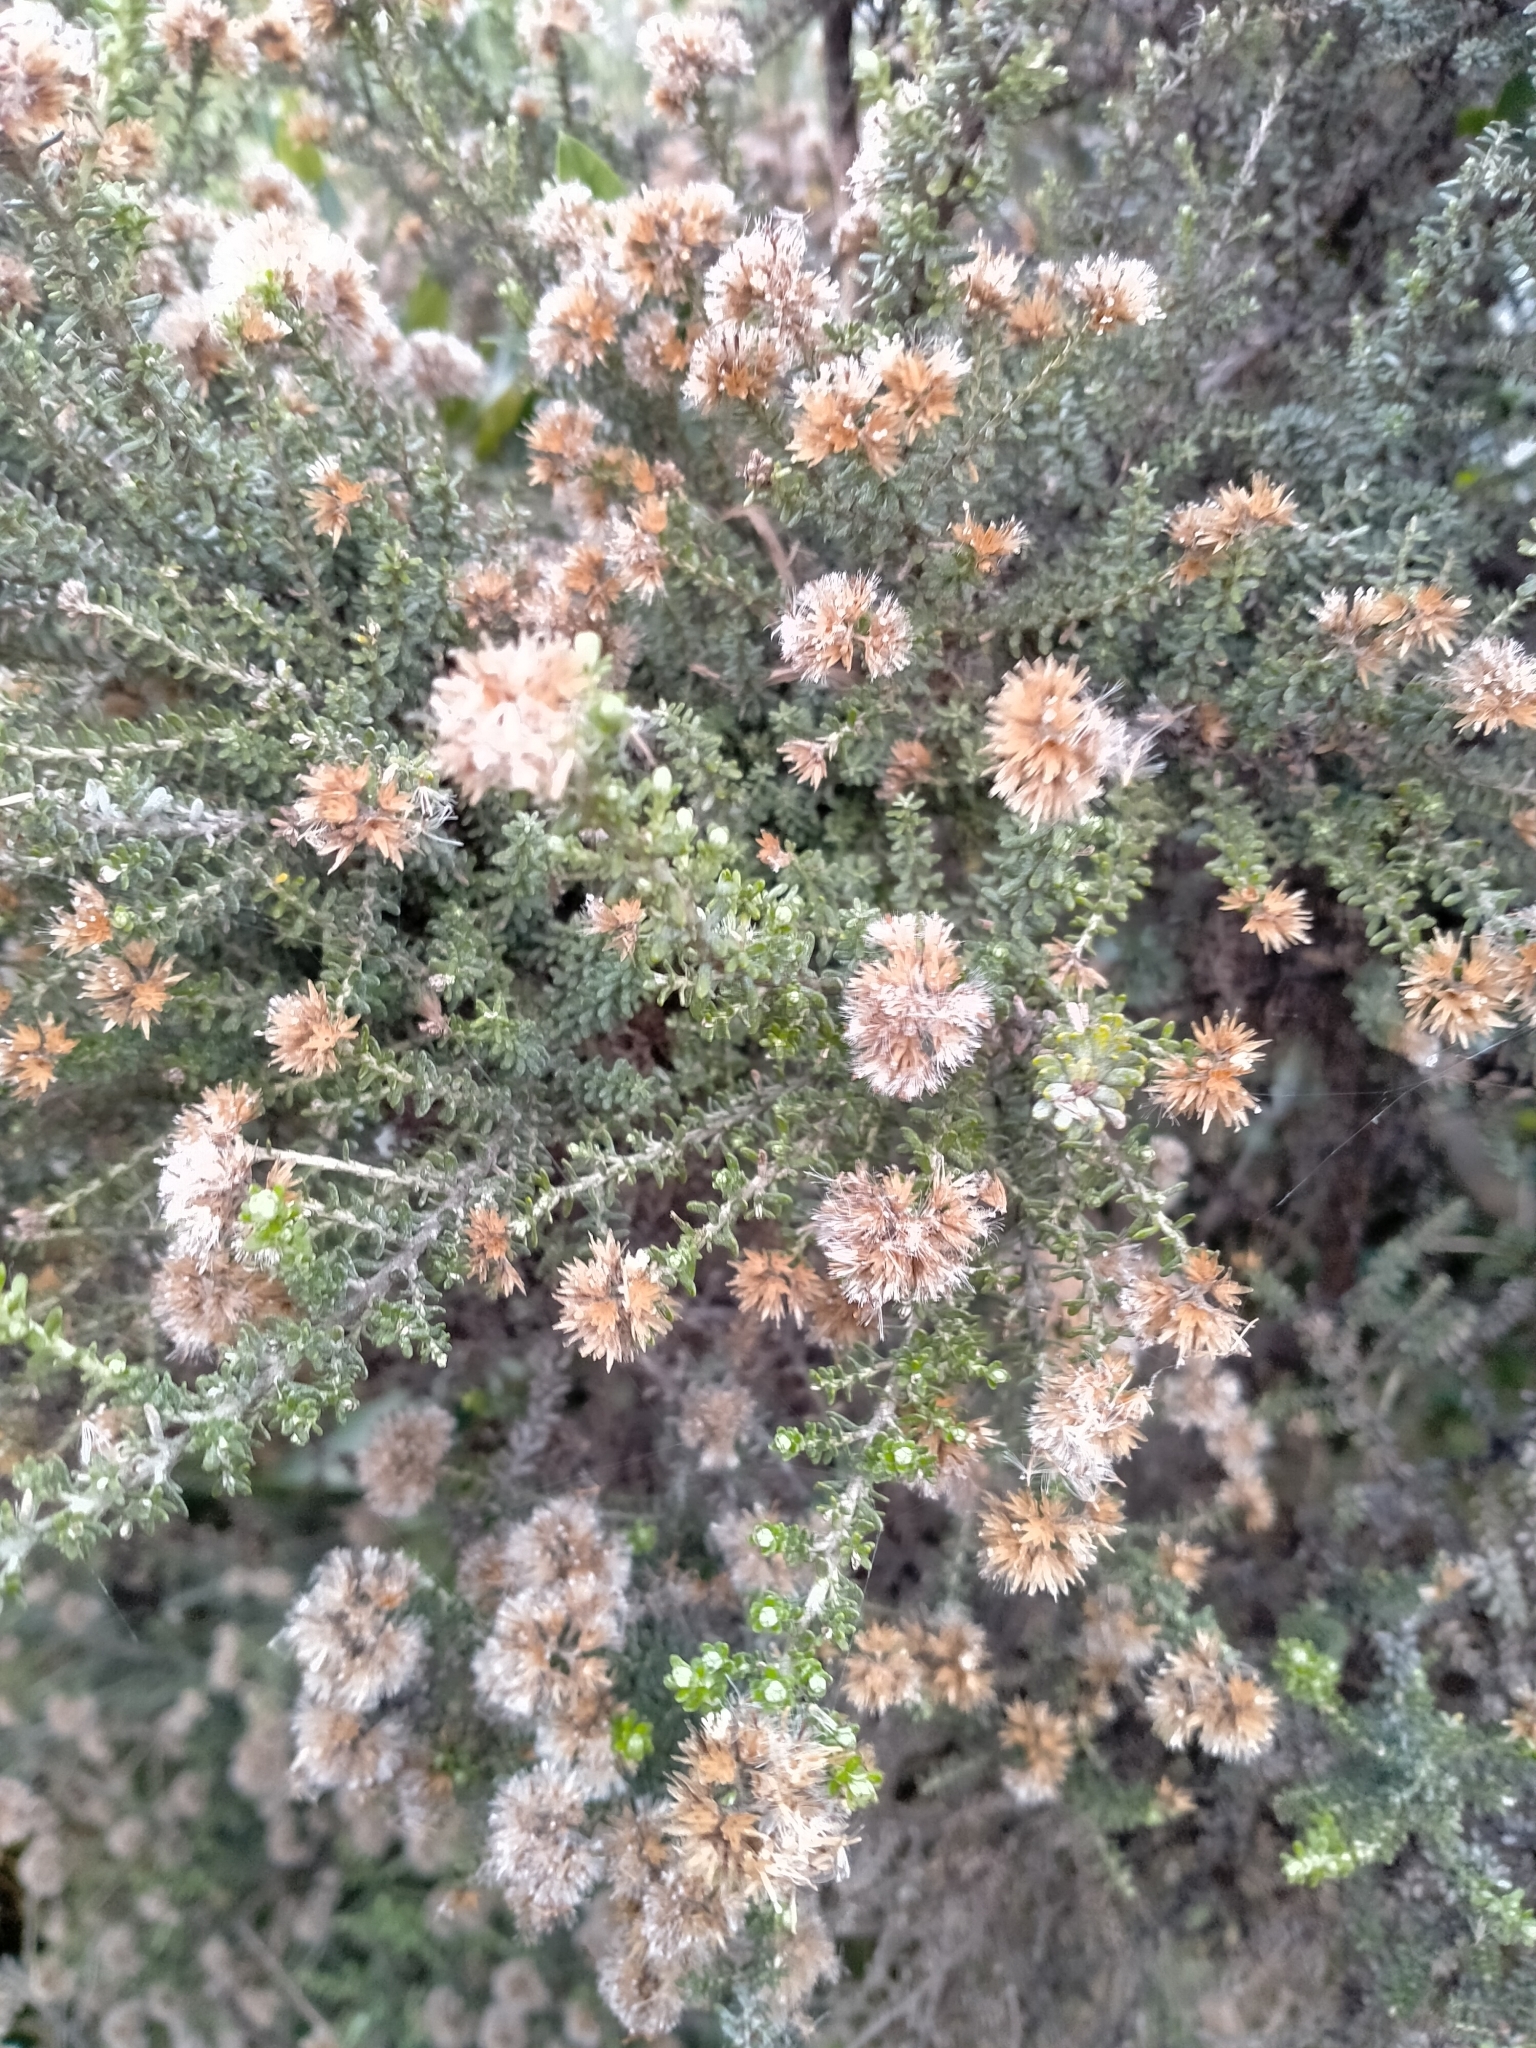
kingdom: Plantae
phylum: Tracheophyta
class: Magnoliopsida
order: Asterales
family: Asteraceae
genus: Ozothamnus
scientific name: Ozothamnus leptophyllus
